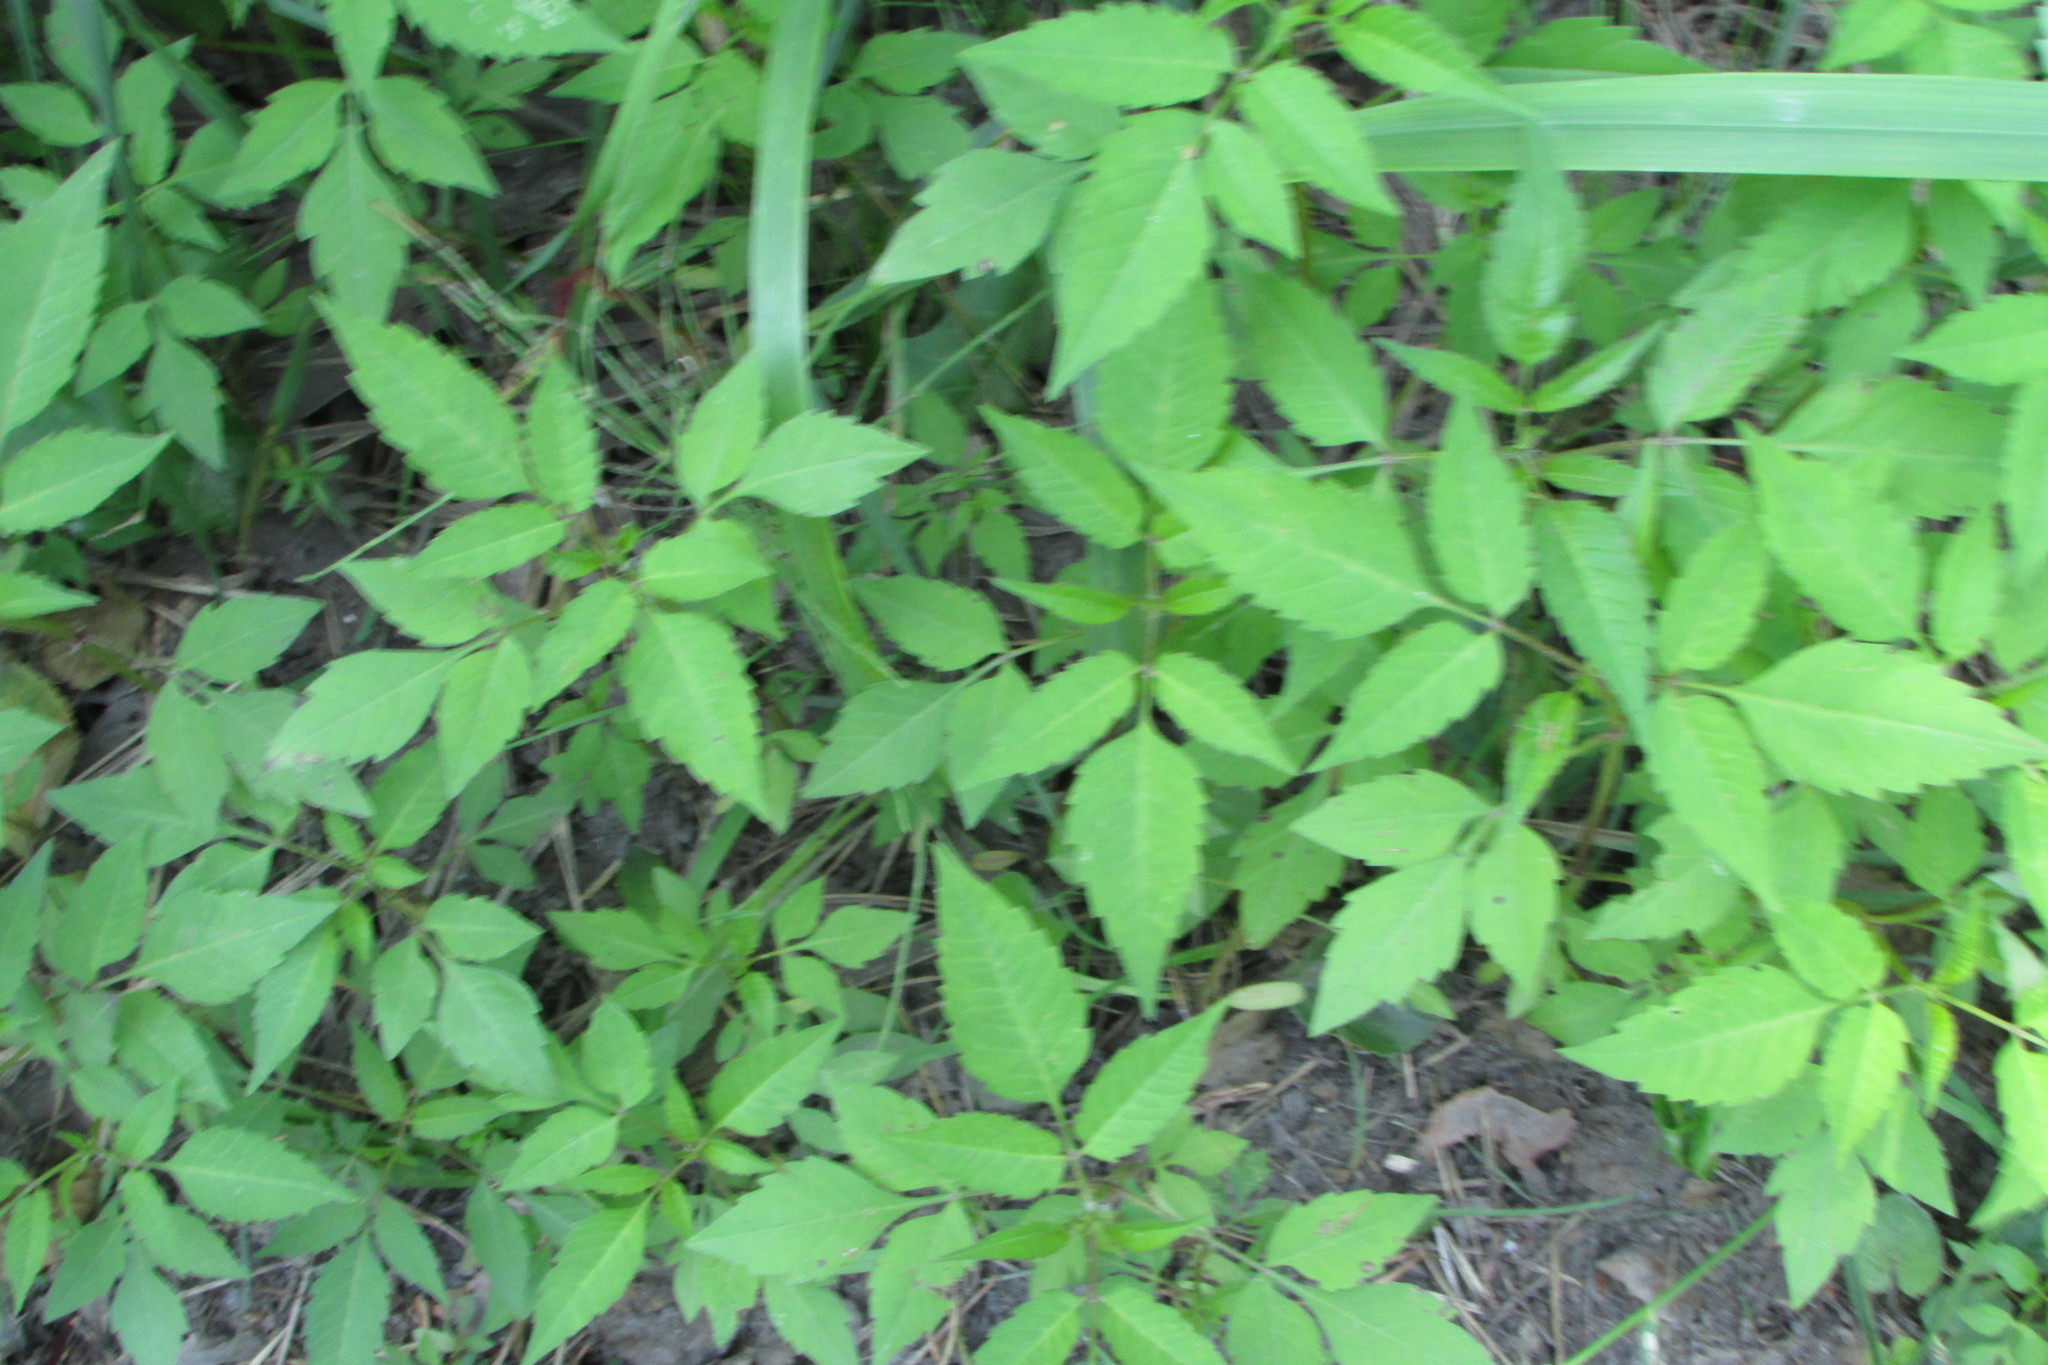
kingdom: Plantae
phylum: Tracheophyta
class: Magnoliopsida
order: Asterales
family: Asteraceae
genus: Bidens
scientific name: Bidens frondosa
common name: Beggarticks
